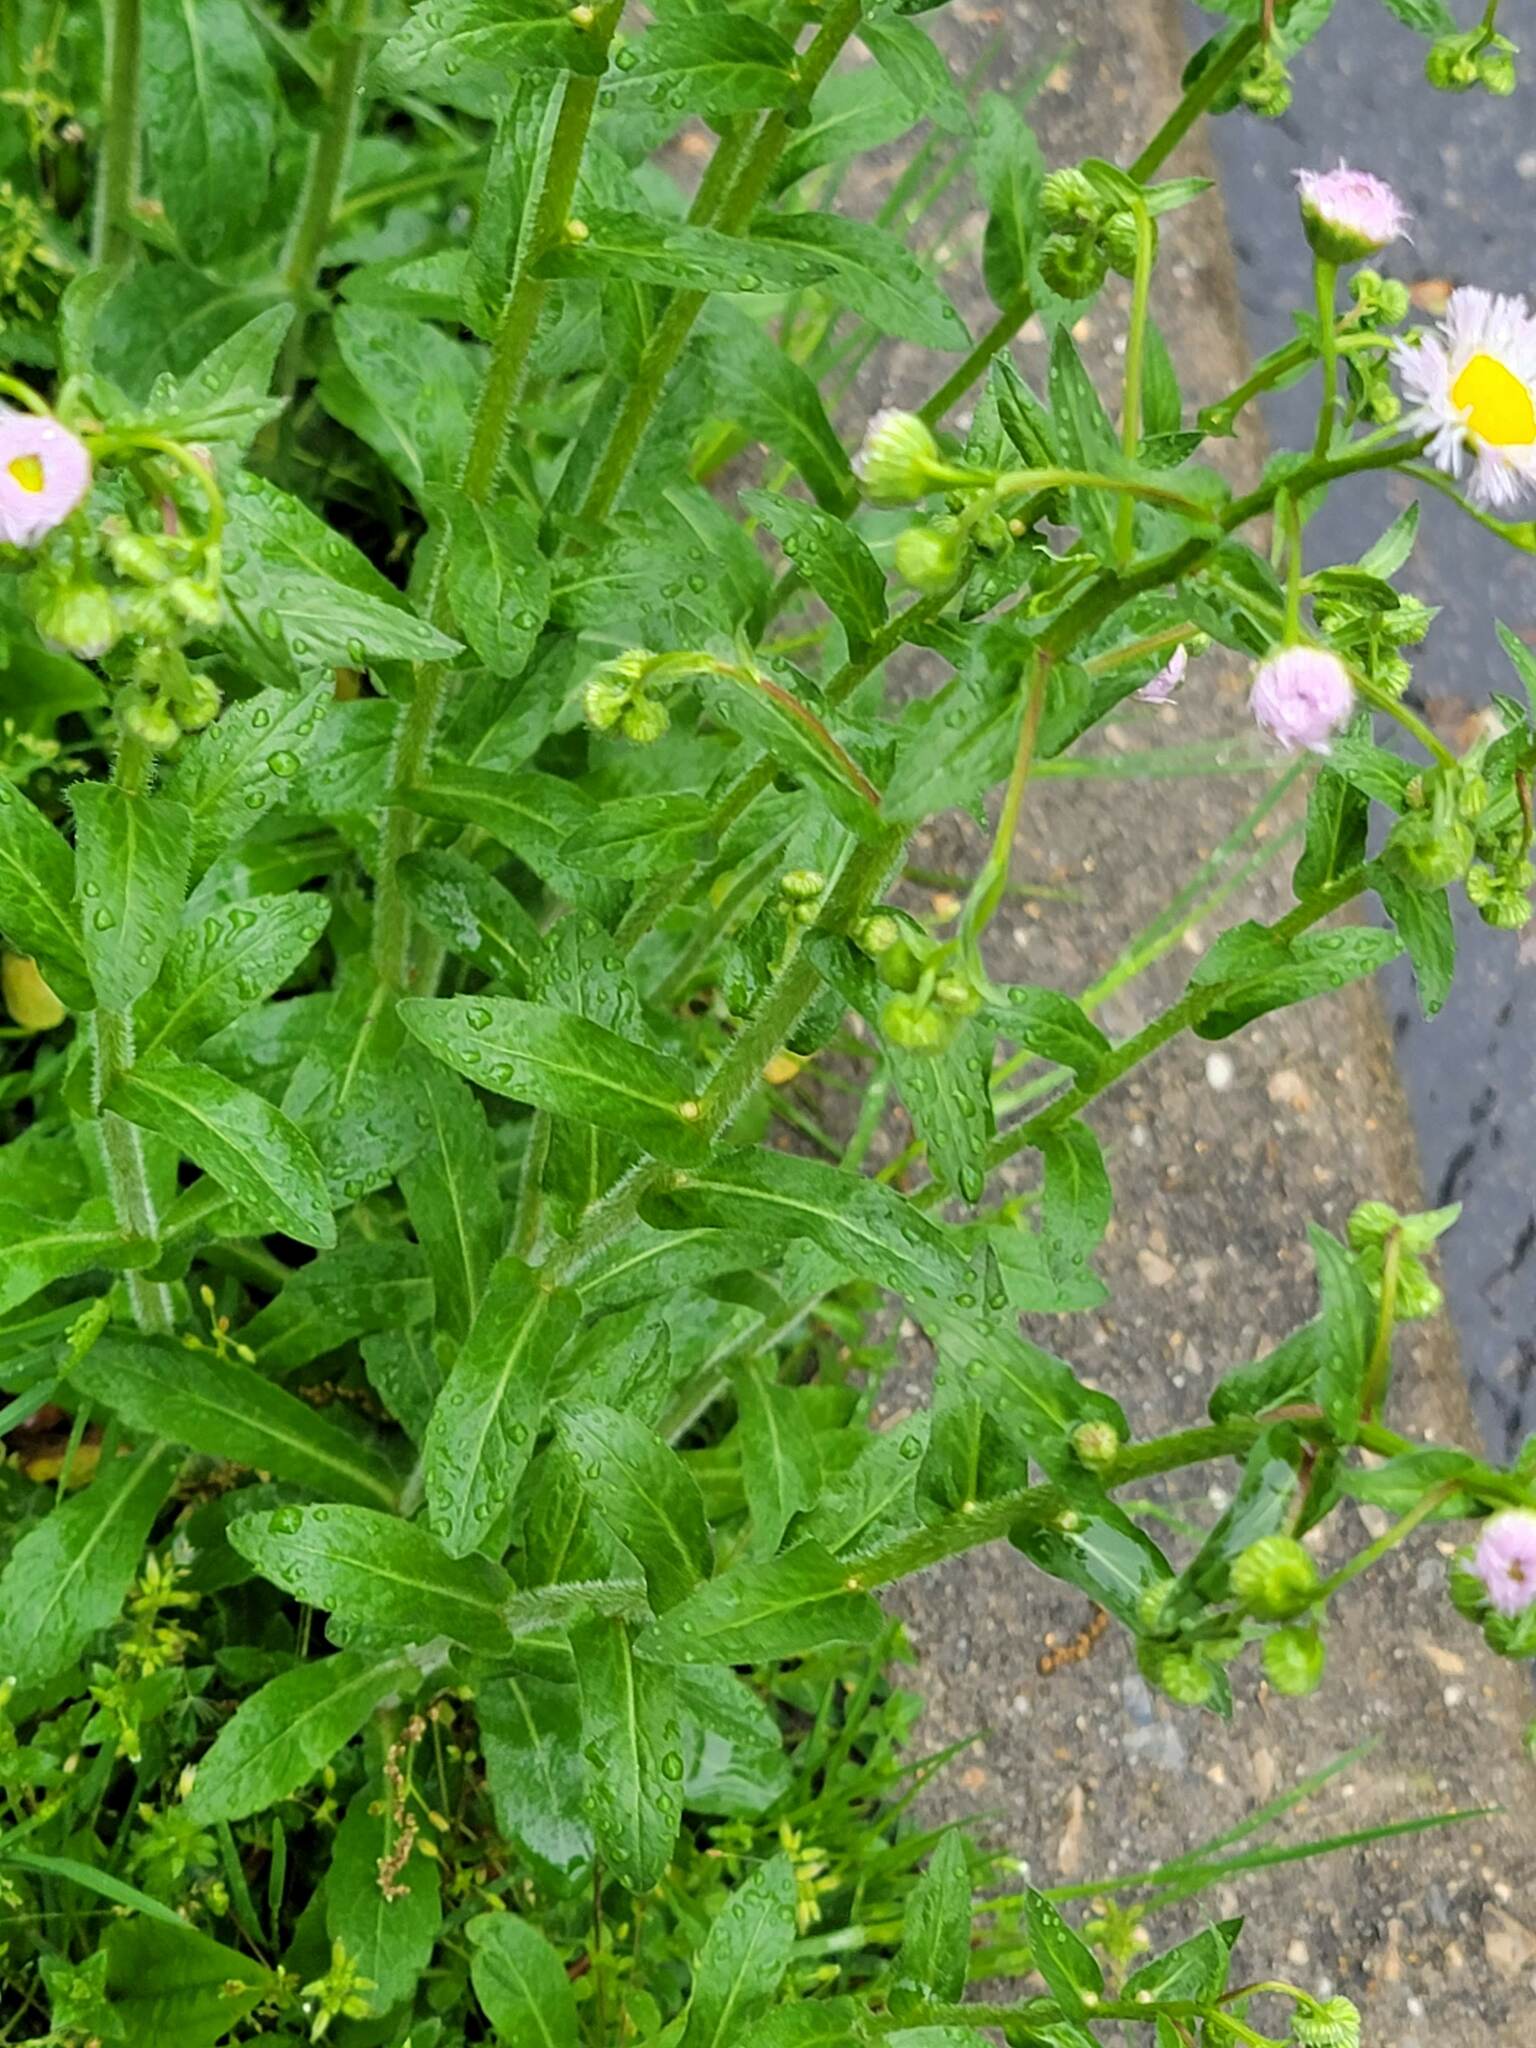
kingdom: Plantae
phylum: Tracheophyta
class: Magnoliopsida
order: Asterales
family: Asteraceae
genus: Erigeron
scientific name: Erigeron philadelphicus
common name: Robin's-plantain
